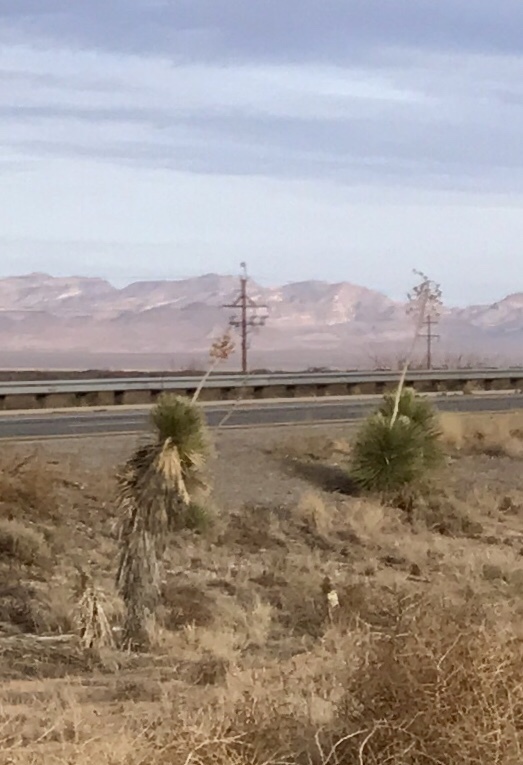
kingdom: Plantae
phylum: Tracheophyta
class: Liliopsida
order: Asparagales
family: Asparagaceae
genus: Yucca
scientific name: Yucca elata
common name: Palmella
